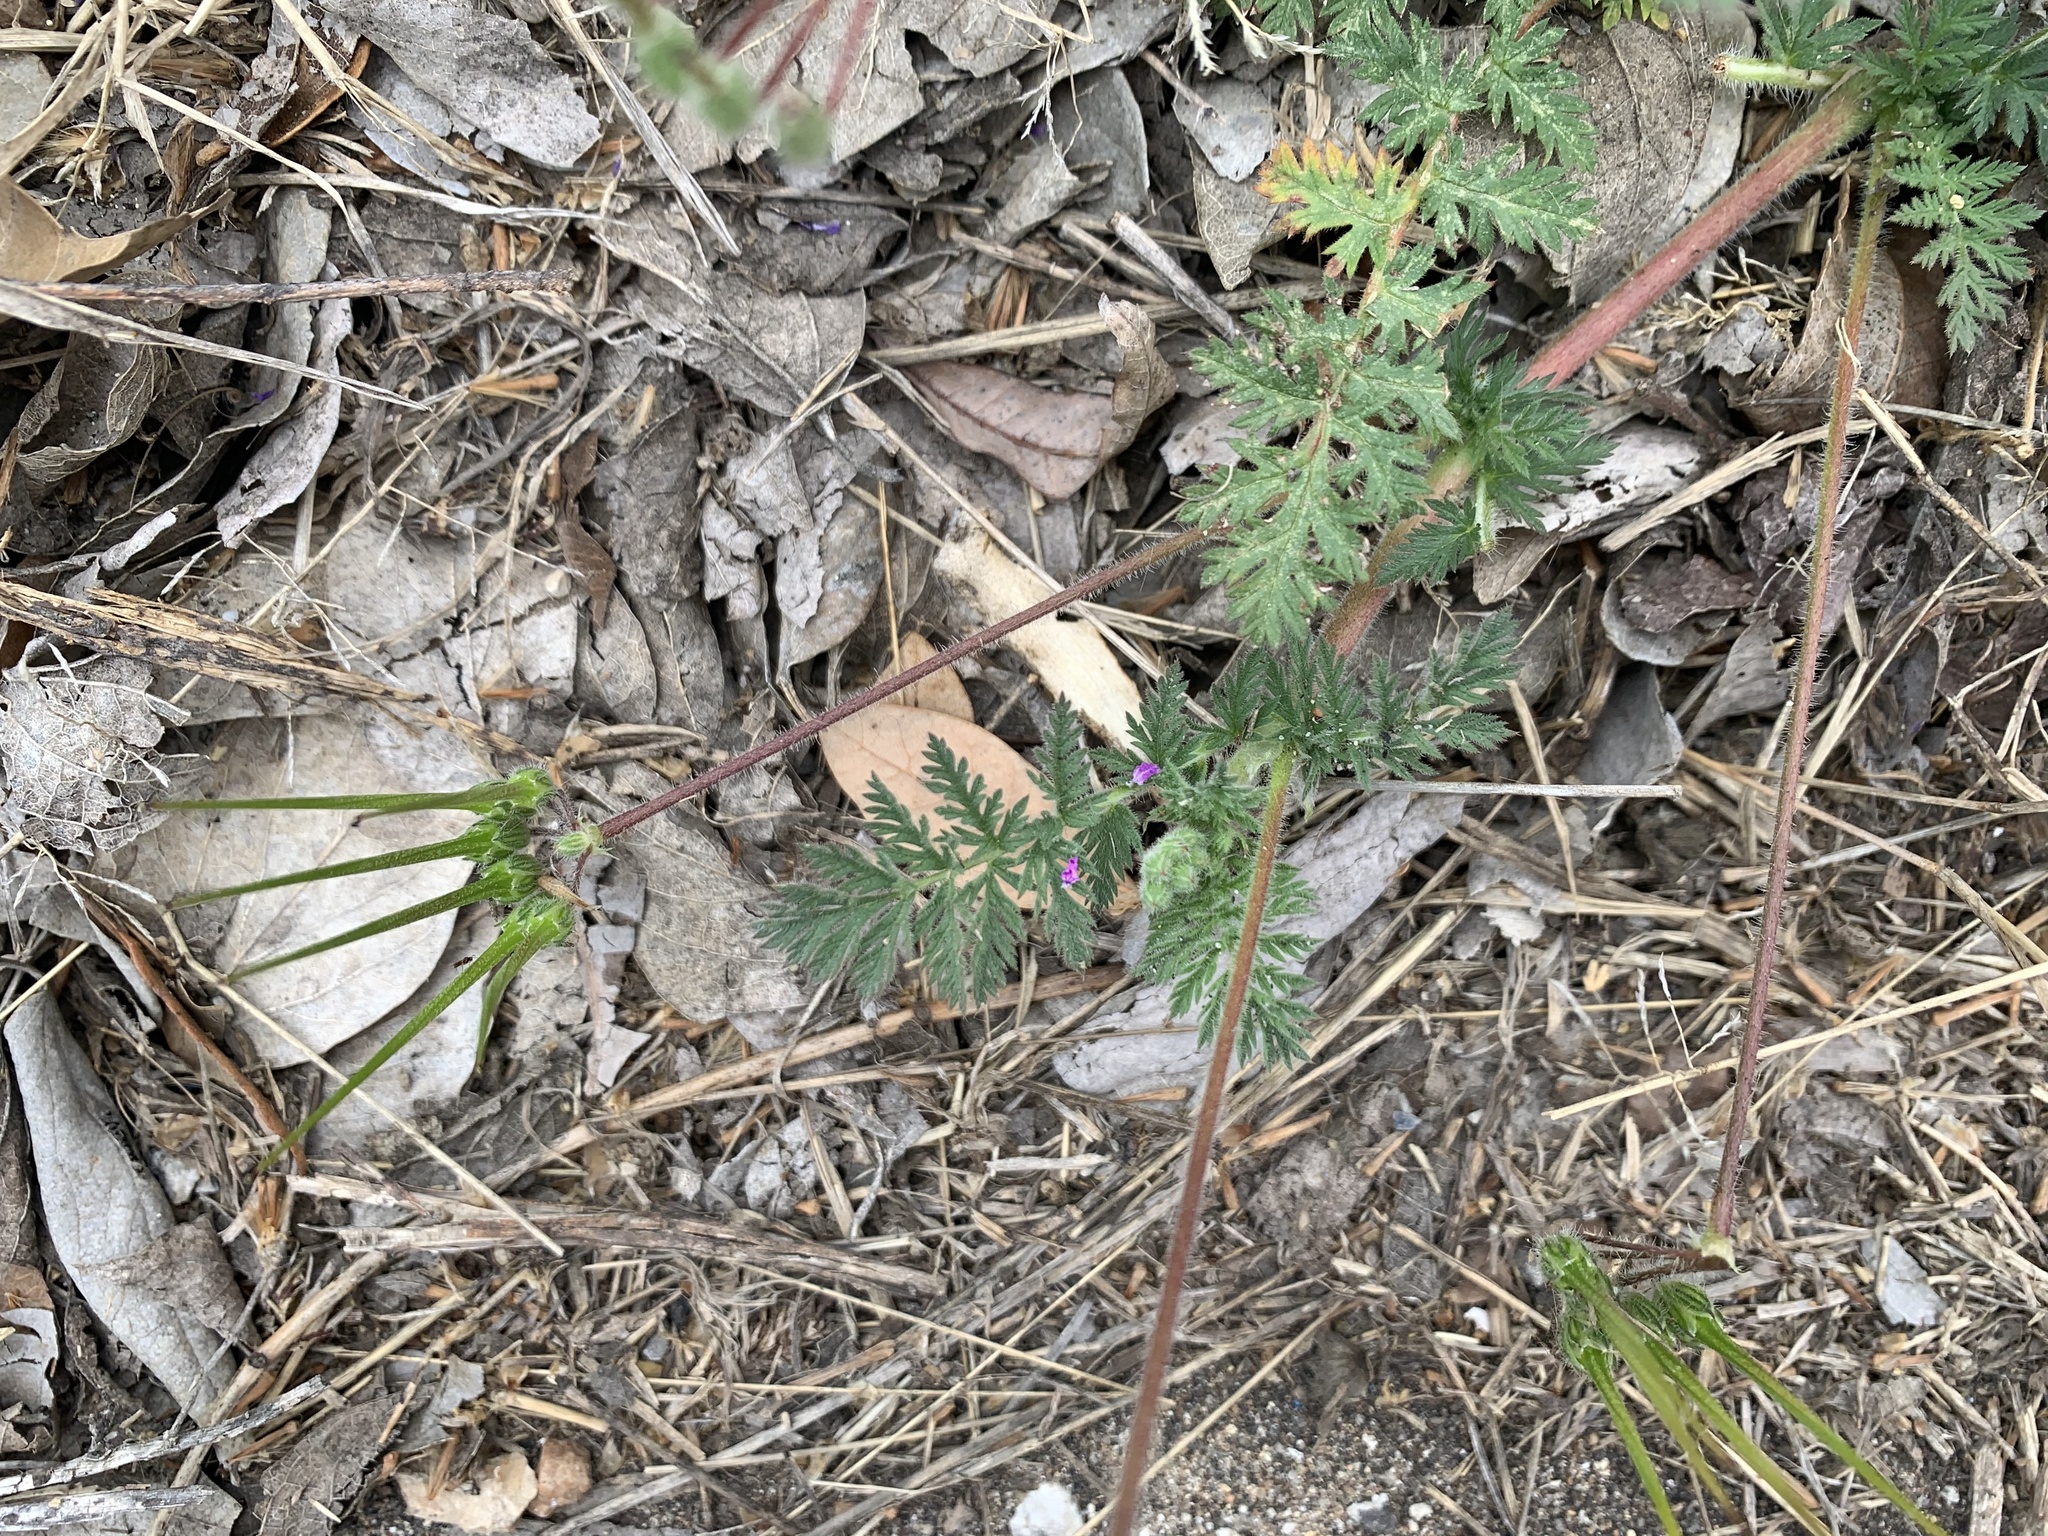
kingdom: Plantae
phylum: Tracheophyta
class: Magnoliopsida
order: Geraniales
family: Geraniaceae
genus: Erodium
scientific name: Erodium cicutarium
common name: Common stork's-bill
